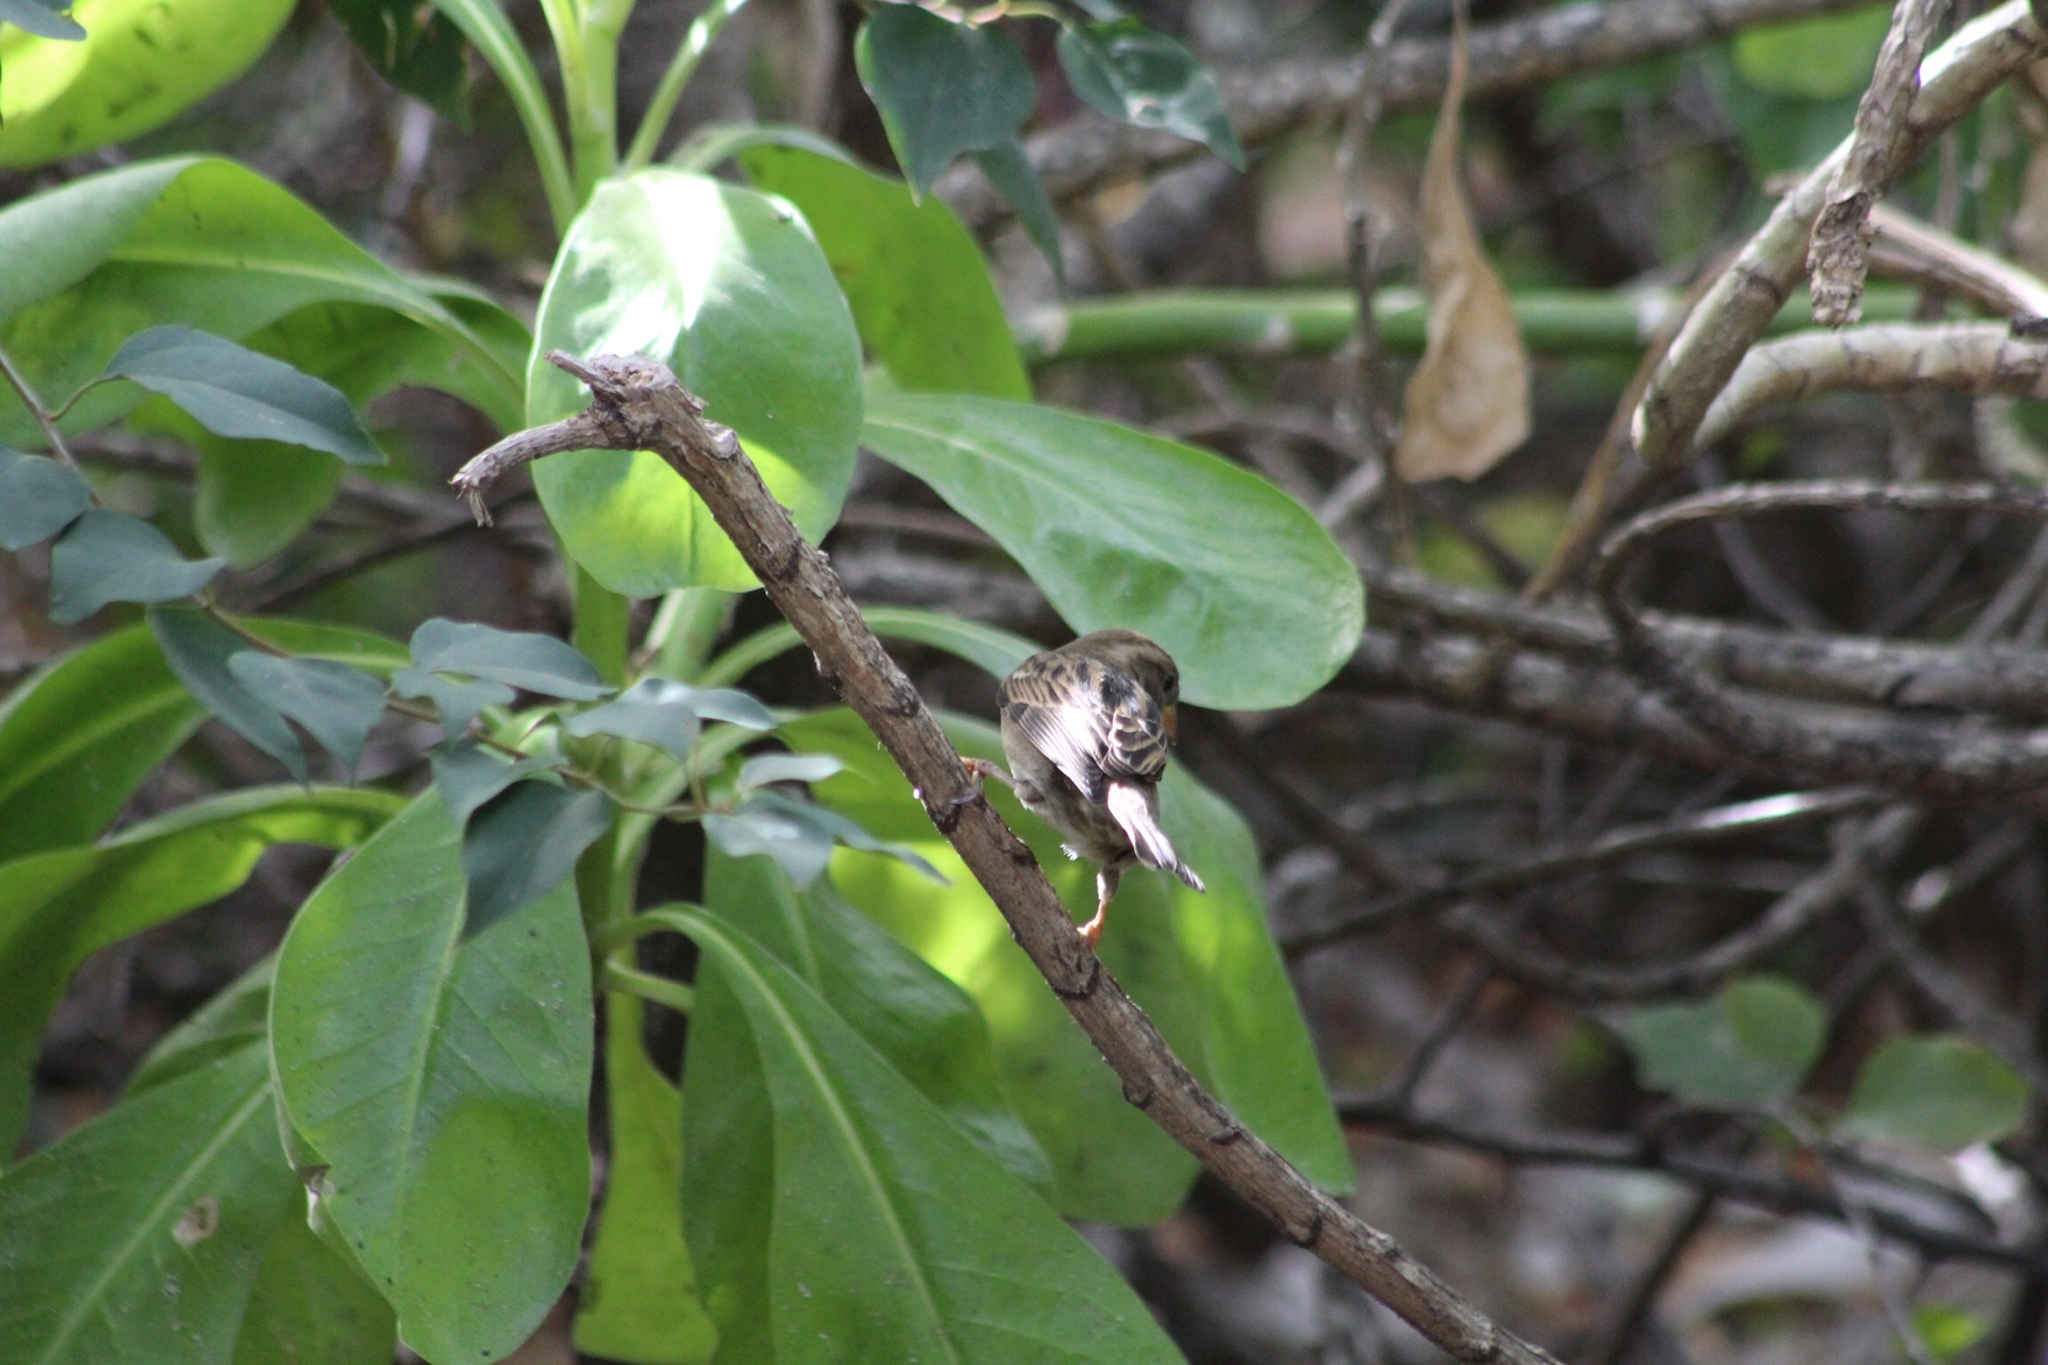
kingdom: Animalia
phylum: Chordata
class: Aves
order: Passeriformes
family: Passeridae
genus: Passer
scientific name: Passer domesticus
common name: House sparrow
